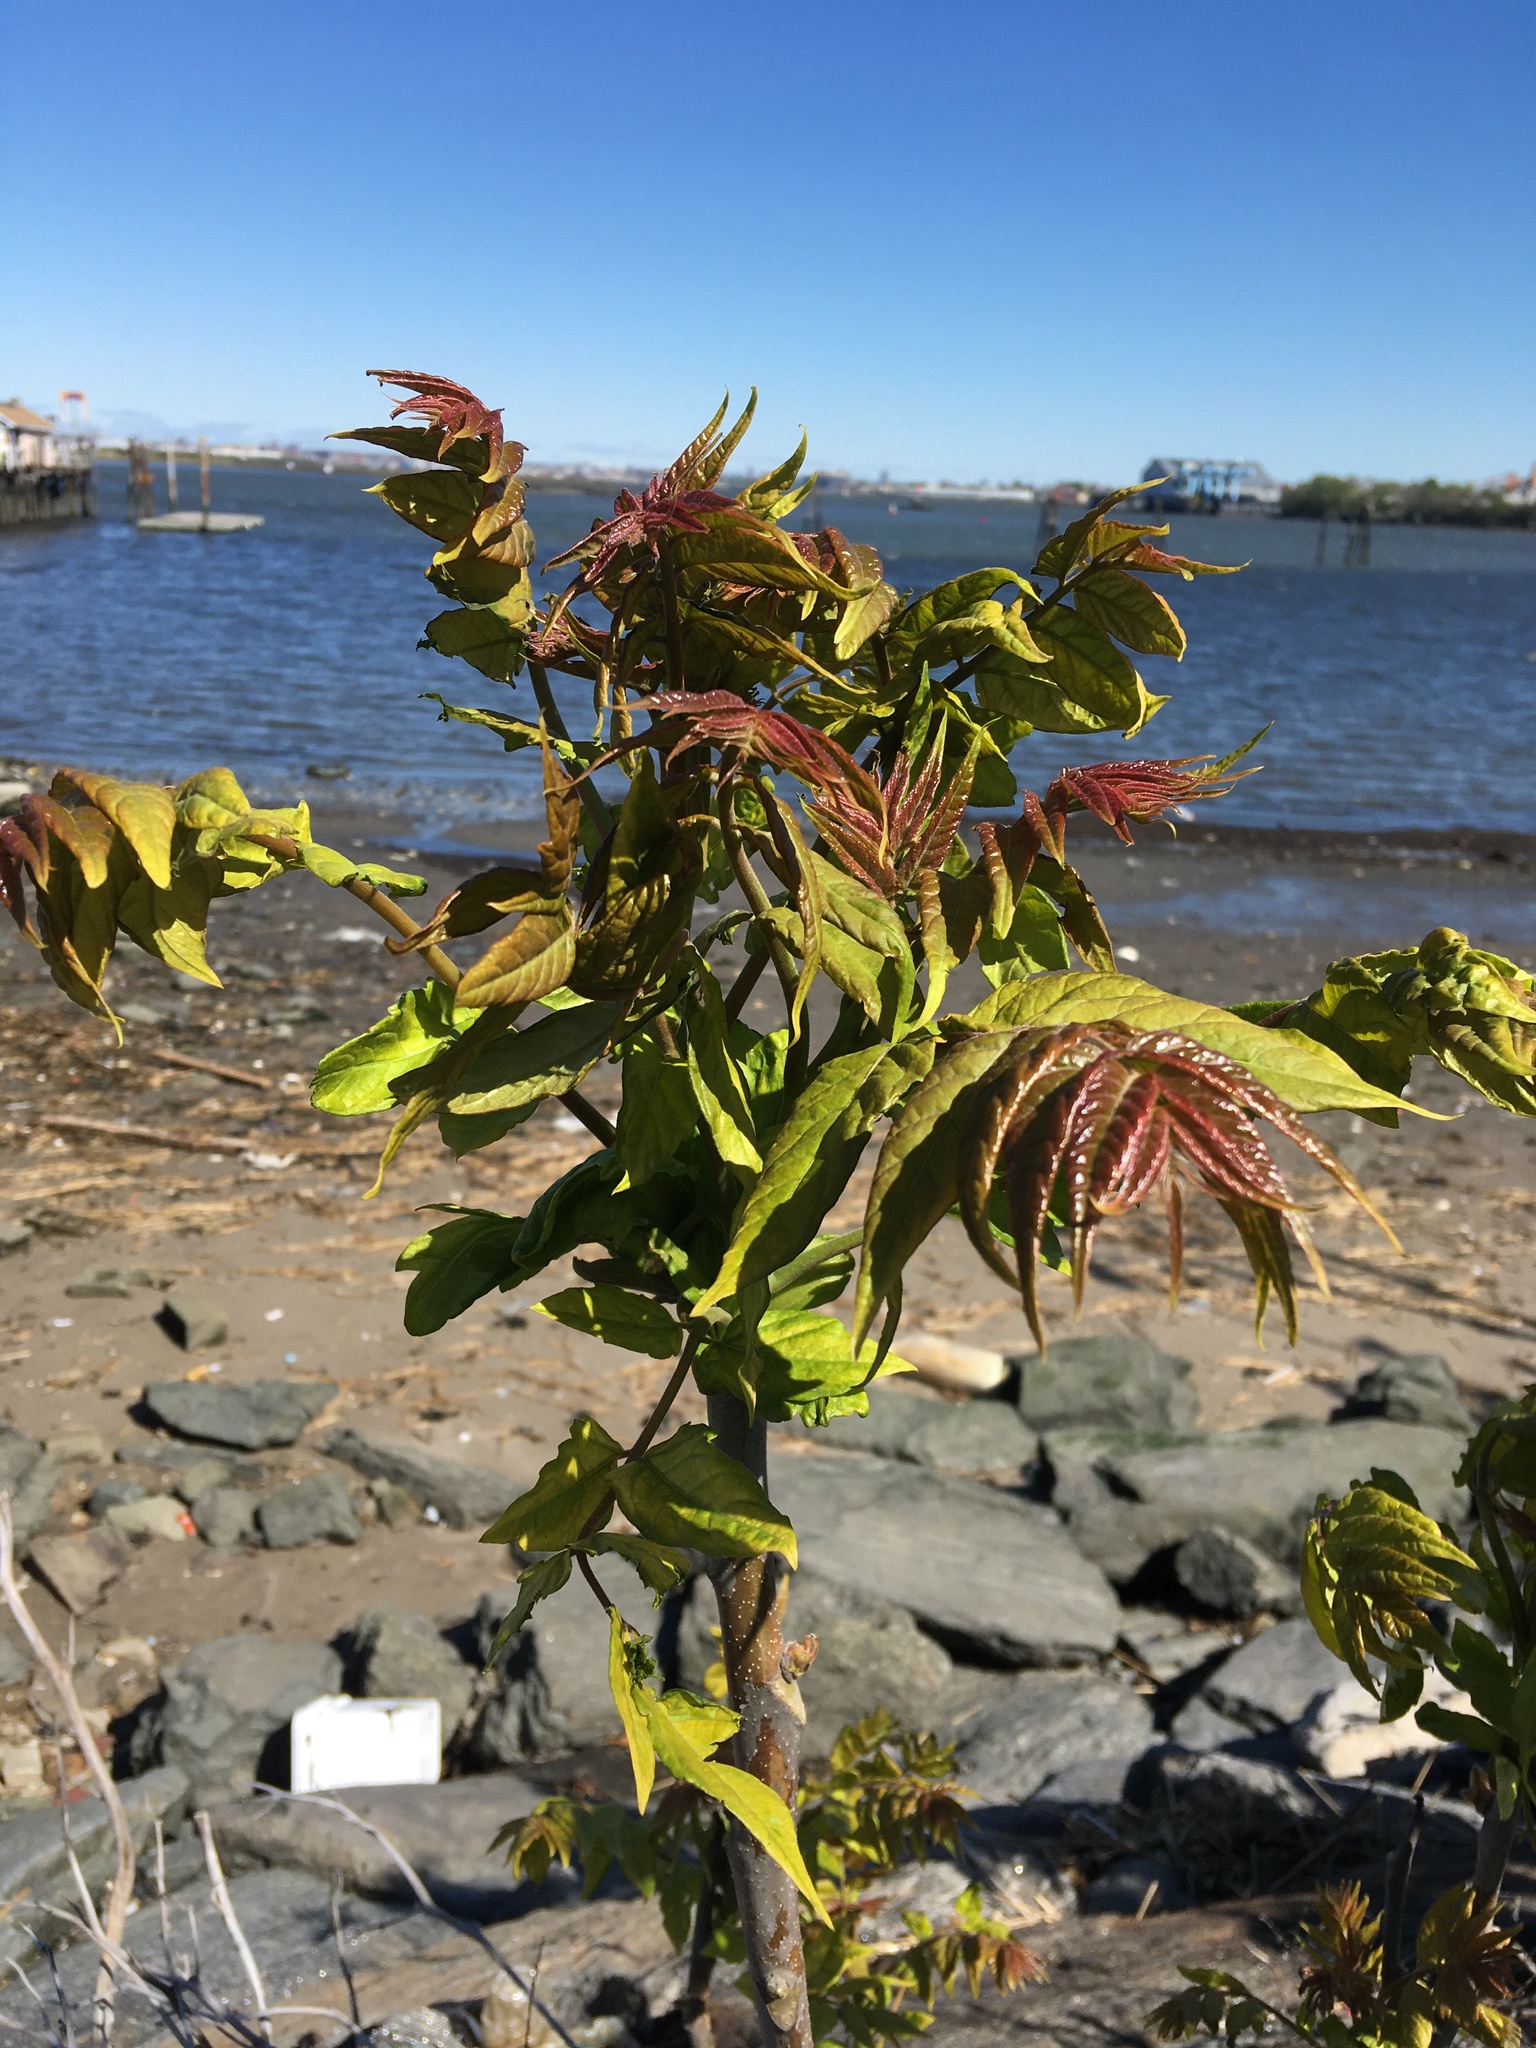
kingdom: Plantae
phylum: Tracheophyta
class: Magnoliopsida
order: Sapindales
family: Simaroubaceae
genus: Ailanthus
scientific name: Ailanthus altissima
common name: Tree-of-heaven
